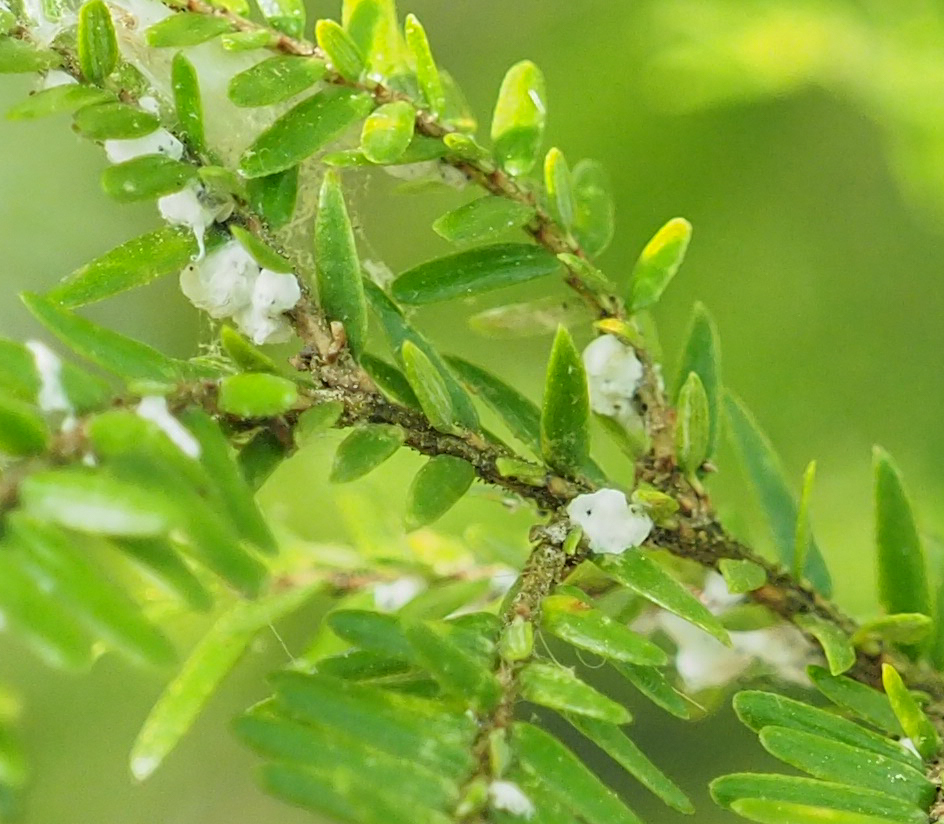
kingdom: Animalia
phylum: Arthropoda
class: Insecta
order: Hemiptera
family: Adelgidae
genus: Adelges
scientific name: Adelges tsugae
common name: Hemlock woolly adelgid
